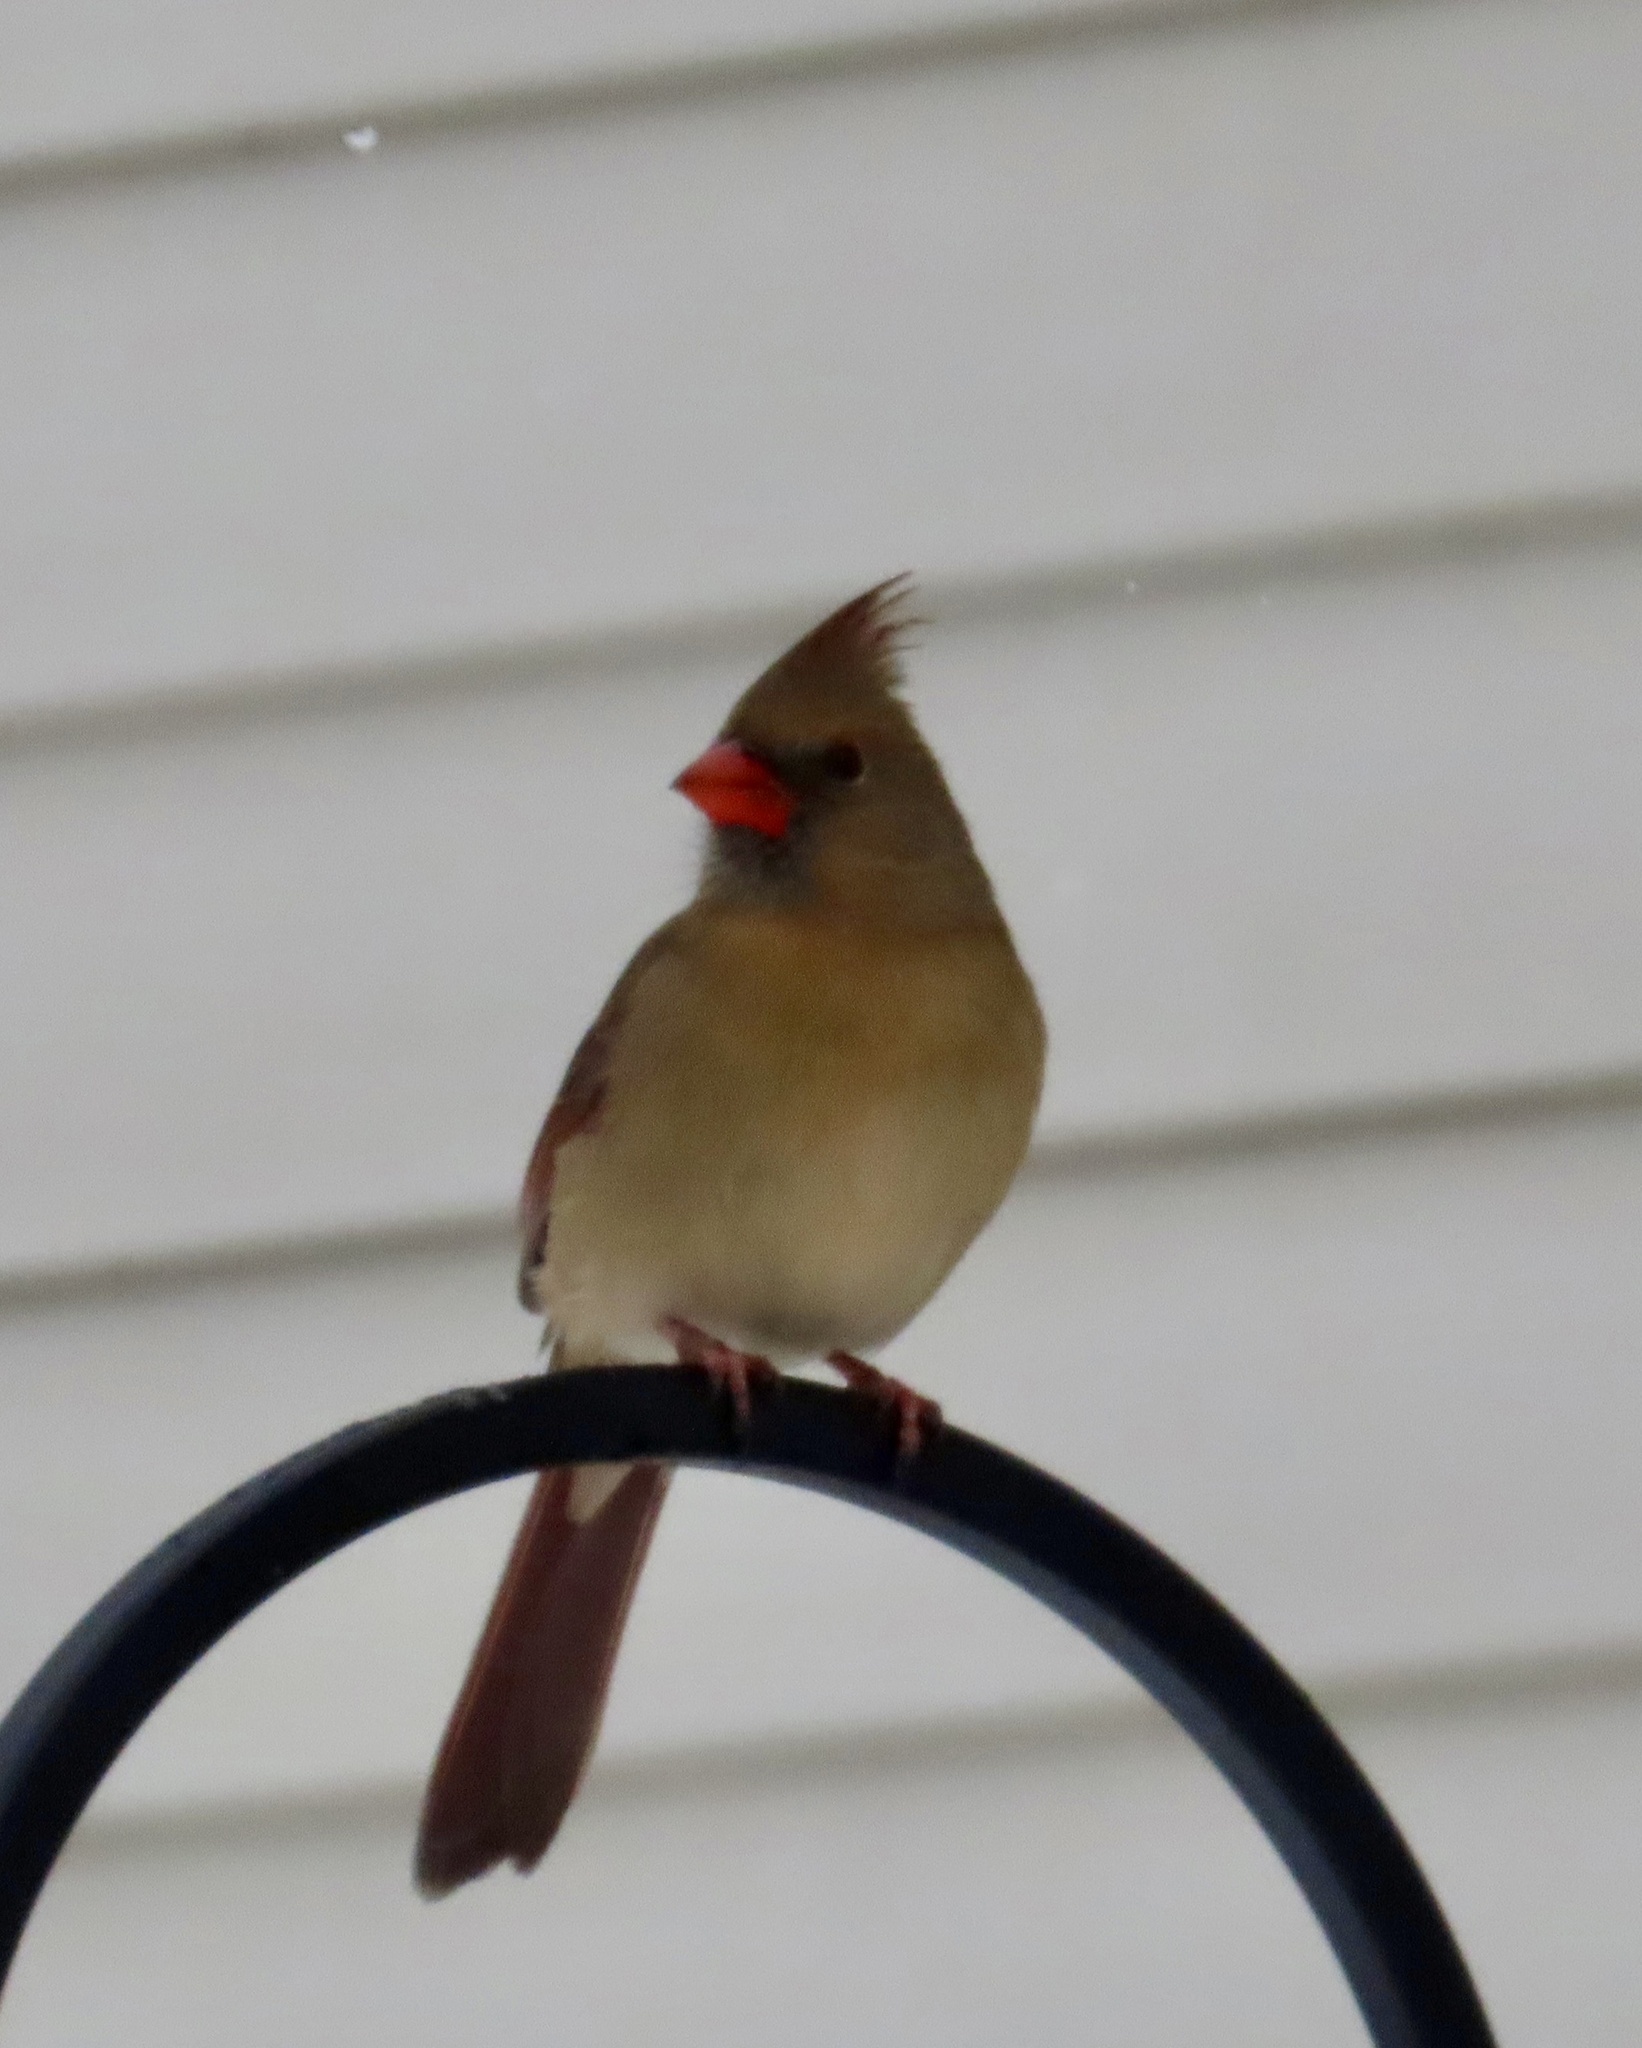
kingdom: Animalia
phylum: Chordata
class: Aves
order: Passeriformes
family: Cardinalidae
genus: Cardinalis
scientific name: Cardinalis cardinalis
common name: Northern cardinal
